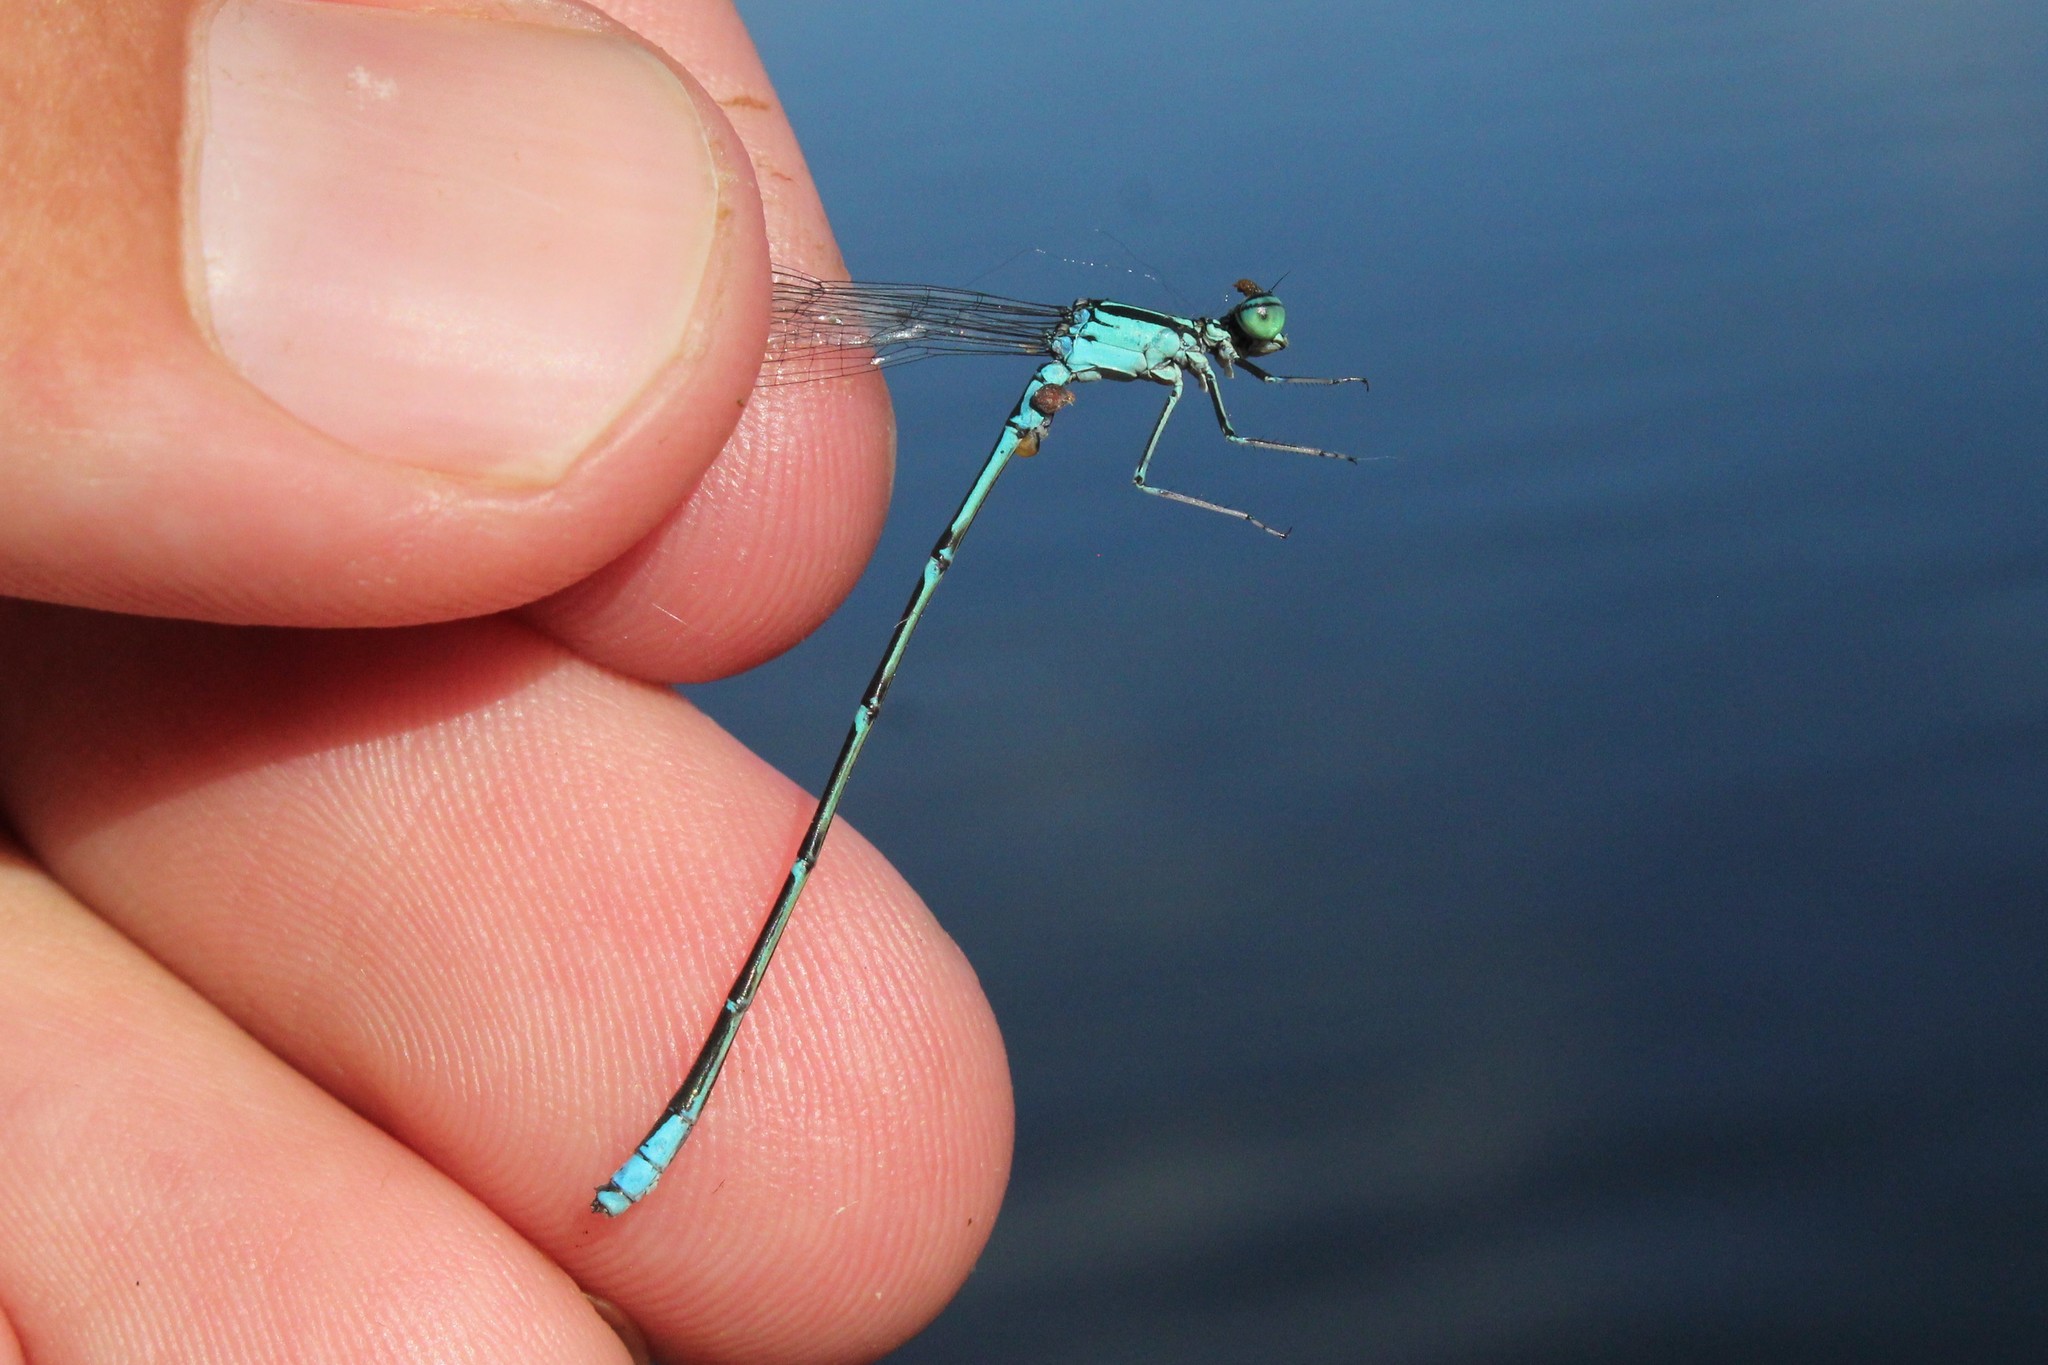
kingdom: Animalia
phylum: Arthropoda
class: Insecta
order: Odonata
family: Coenagrionidae
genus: Enallagma
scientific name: Enallagma exsulans
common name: Stream bluet
